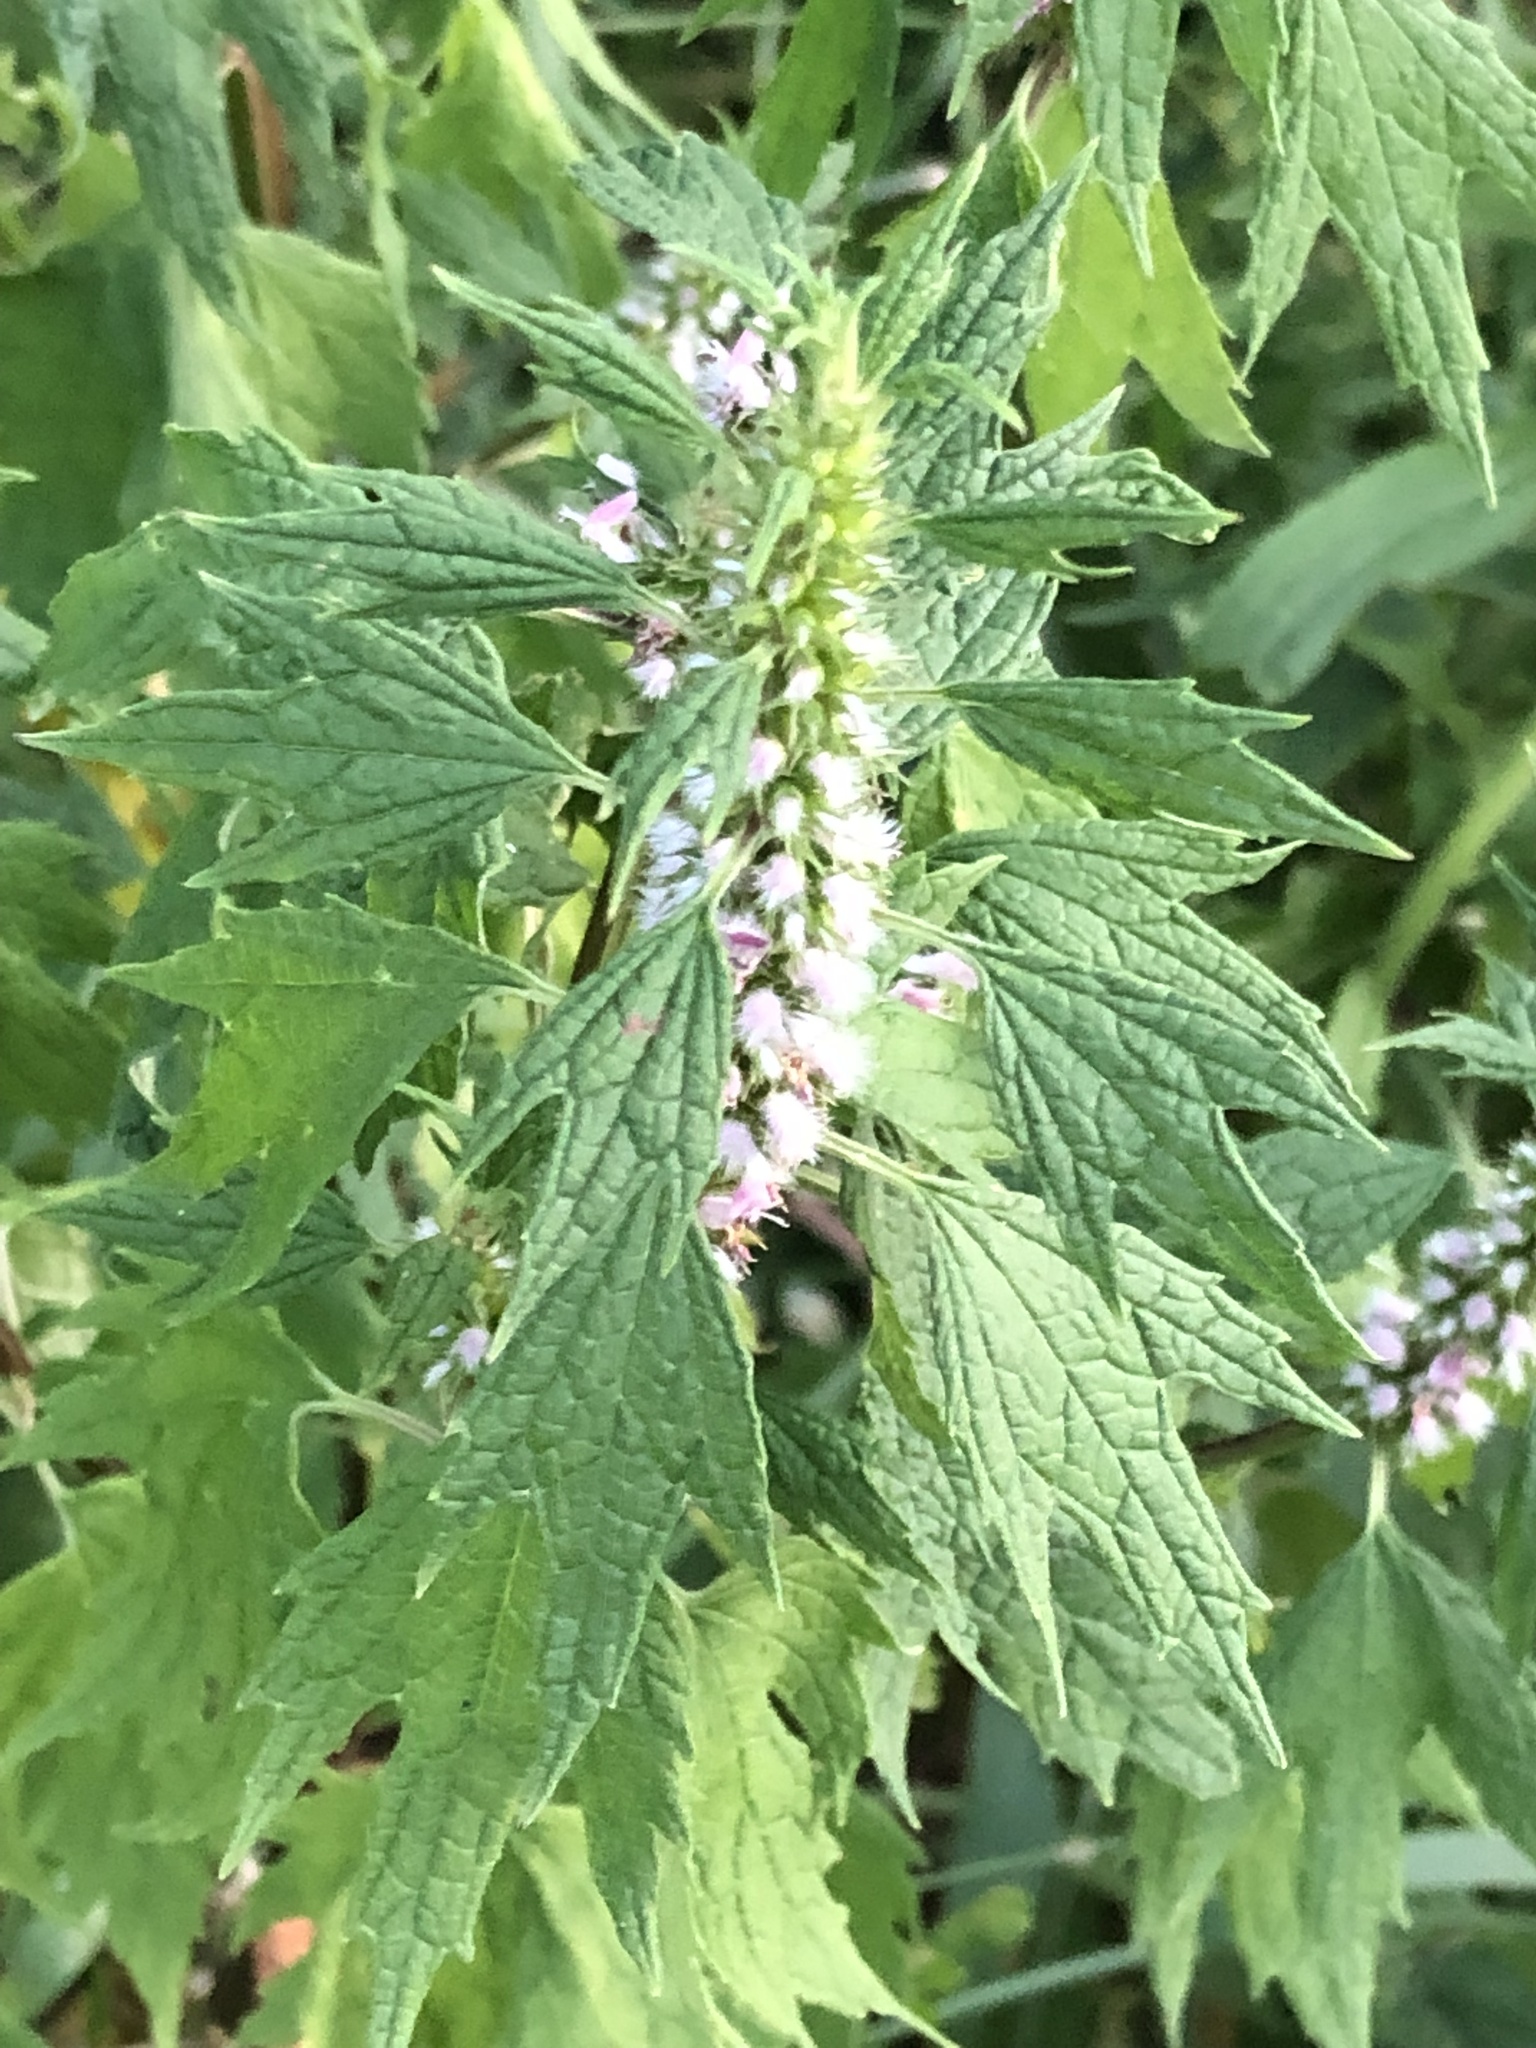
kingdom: Plantae
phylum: Tracheophyta
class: Magnoliopsida
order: Lamiales
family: Lamiaceae
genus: Leonurus
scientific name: Leonurus cardiaca
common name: Motherwort
